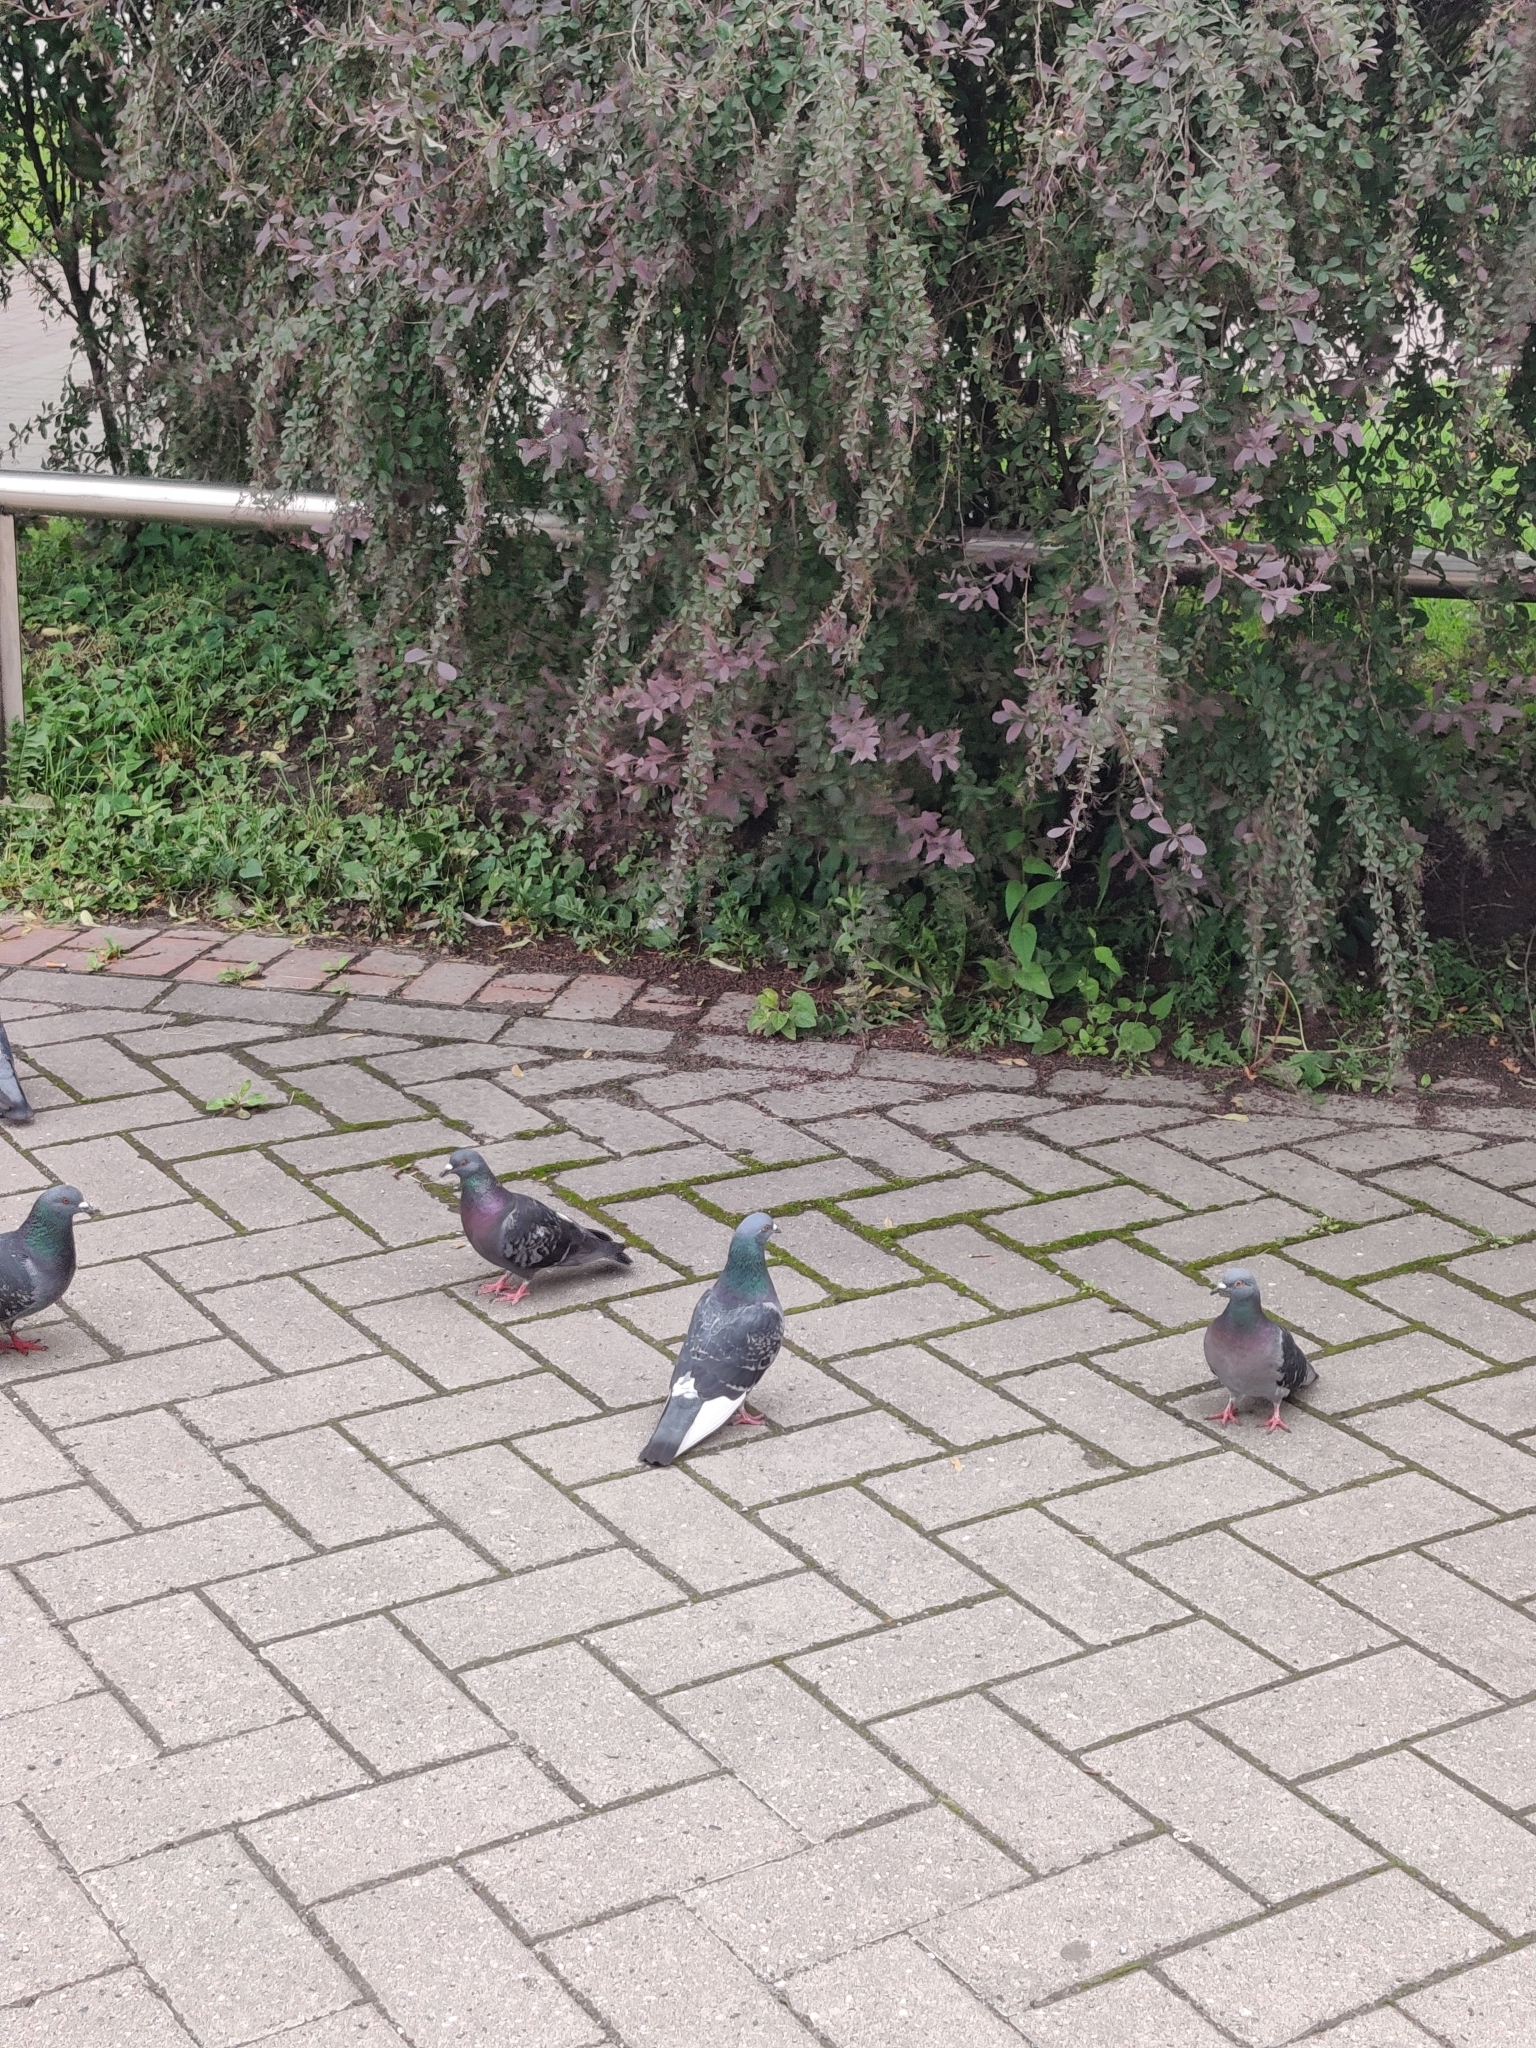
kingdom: Animalia
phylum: Chordata
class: Aves
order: Columbiformes
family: Columbidae
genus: Columba
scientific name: Columba livia
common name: Rock pigeon
